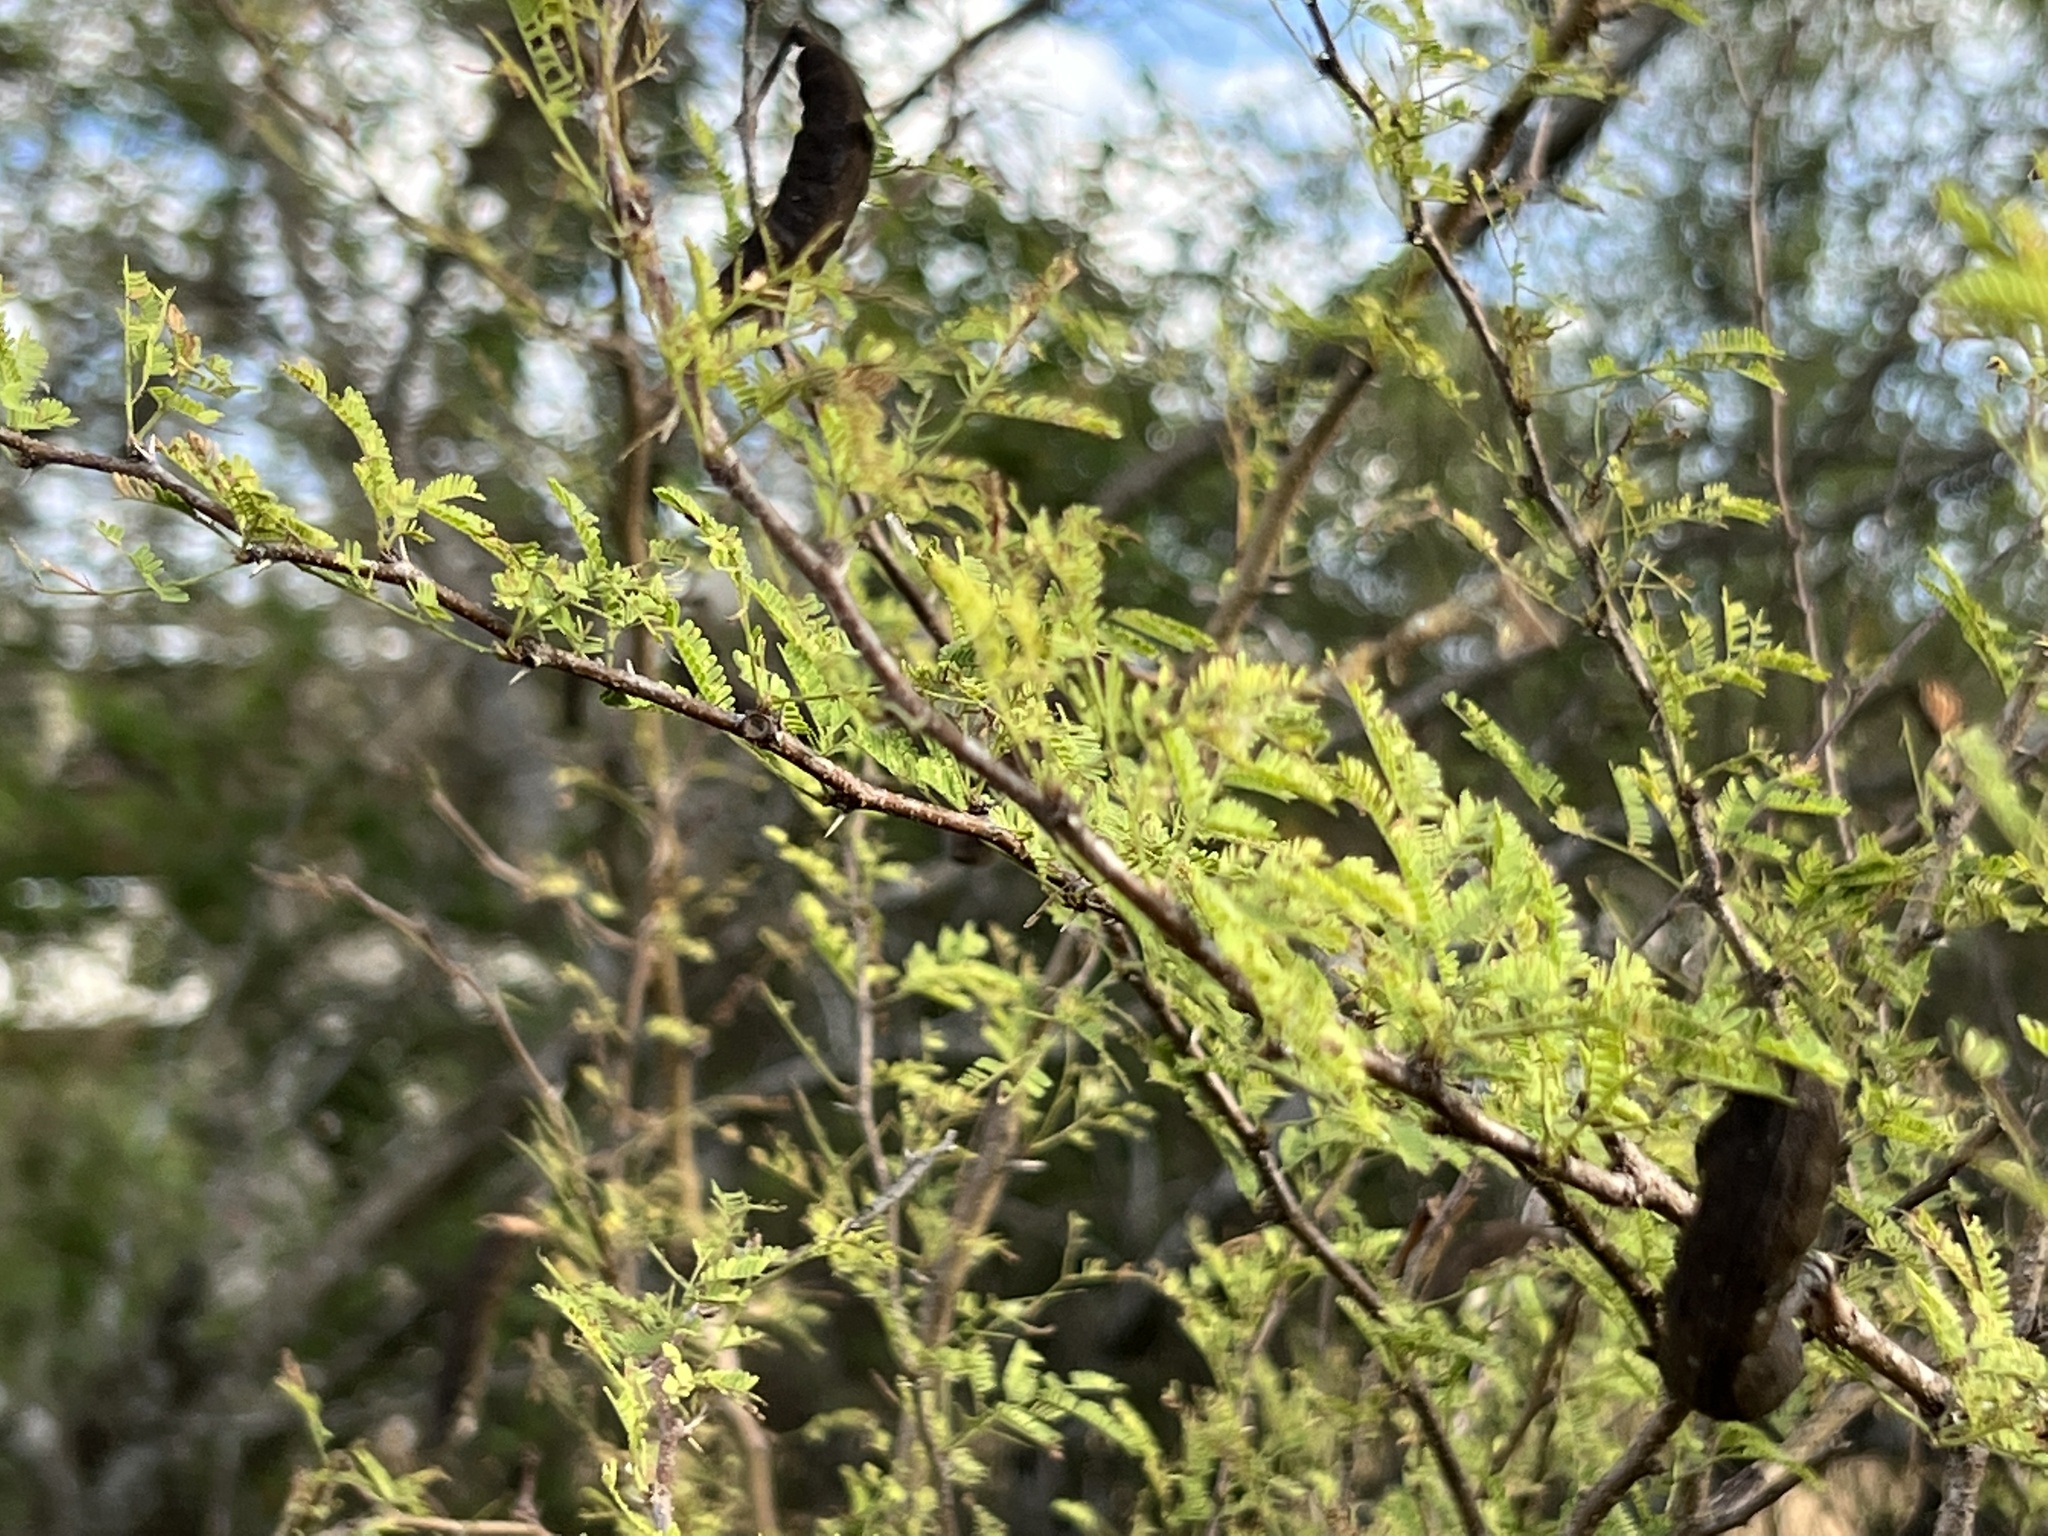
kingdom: Plantae
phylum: Tracheophyta
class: Magnoliopsida
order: Fabales
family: Fabaceae
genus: Vachellia
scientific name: Vachellia farnesiana
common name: Sweet acacia
